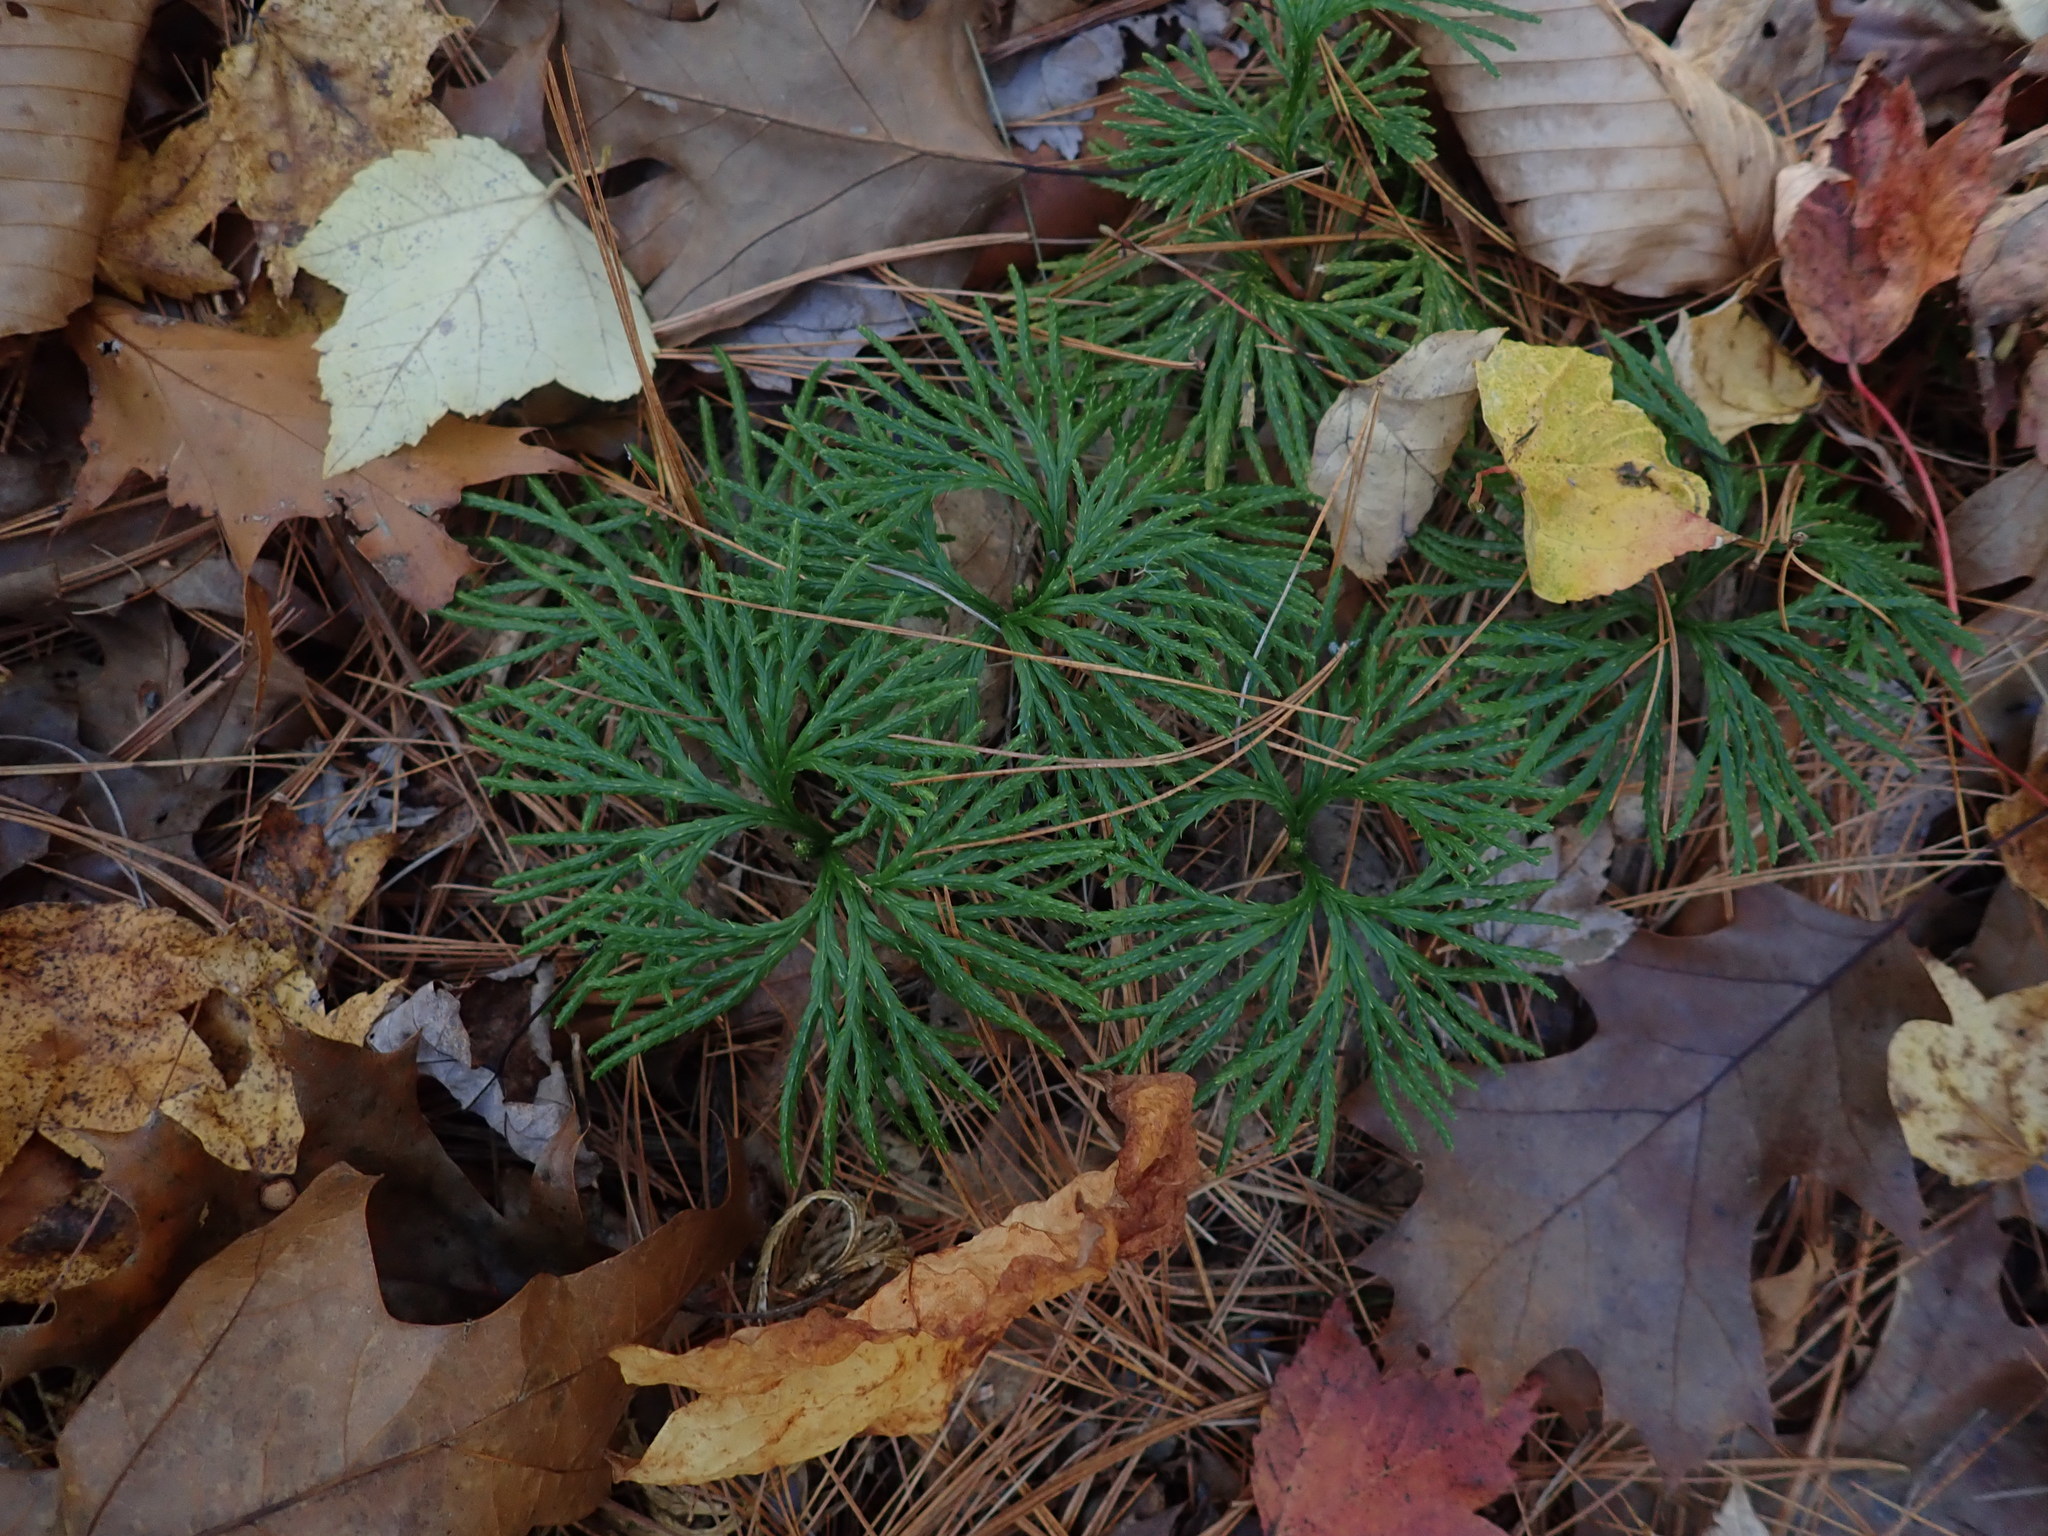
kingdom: Plantae
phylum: Tracheophyta
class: Lycopodiopsida
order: Lycopodiales
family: Lycopodiaceae
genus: Diphasiastrum
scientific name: Diphasiastrum digitatum
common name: Southern running-pine
